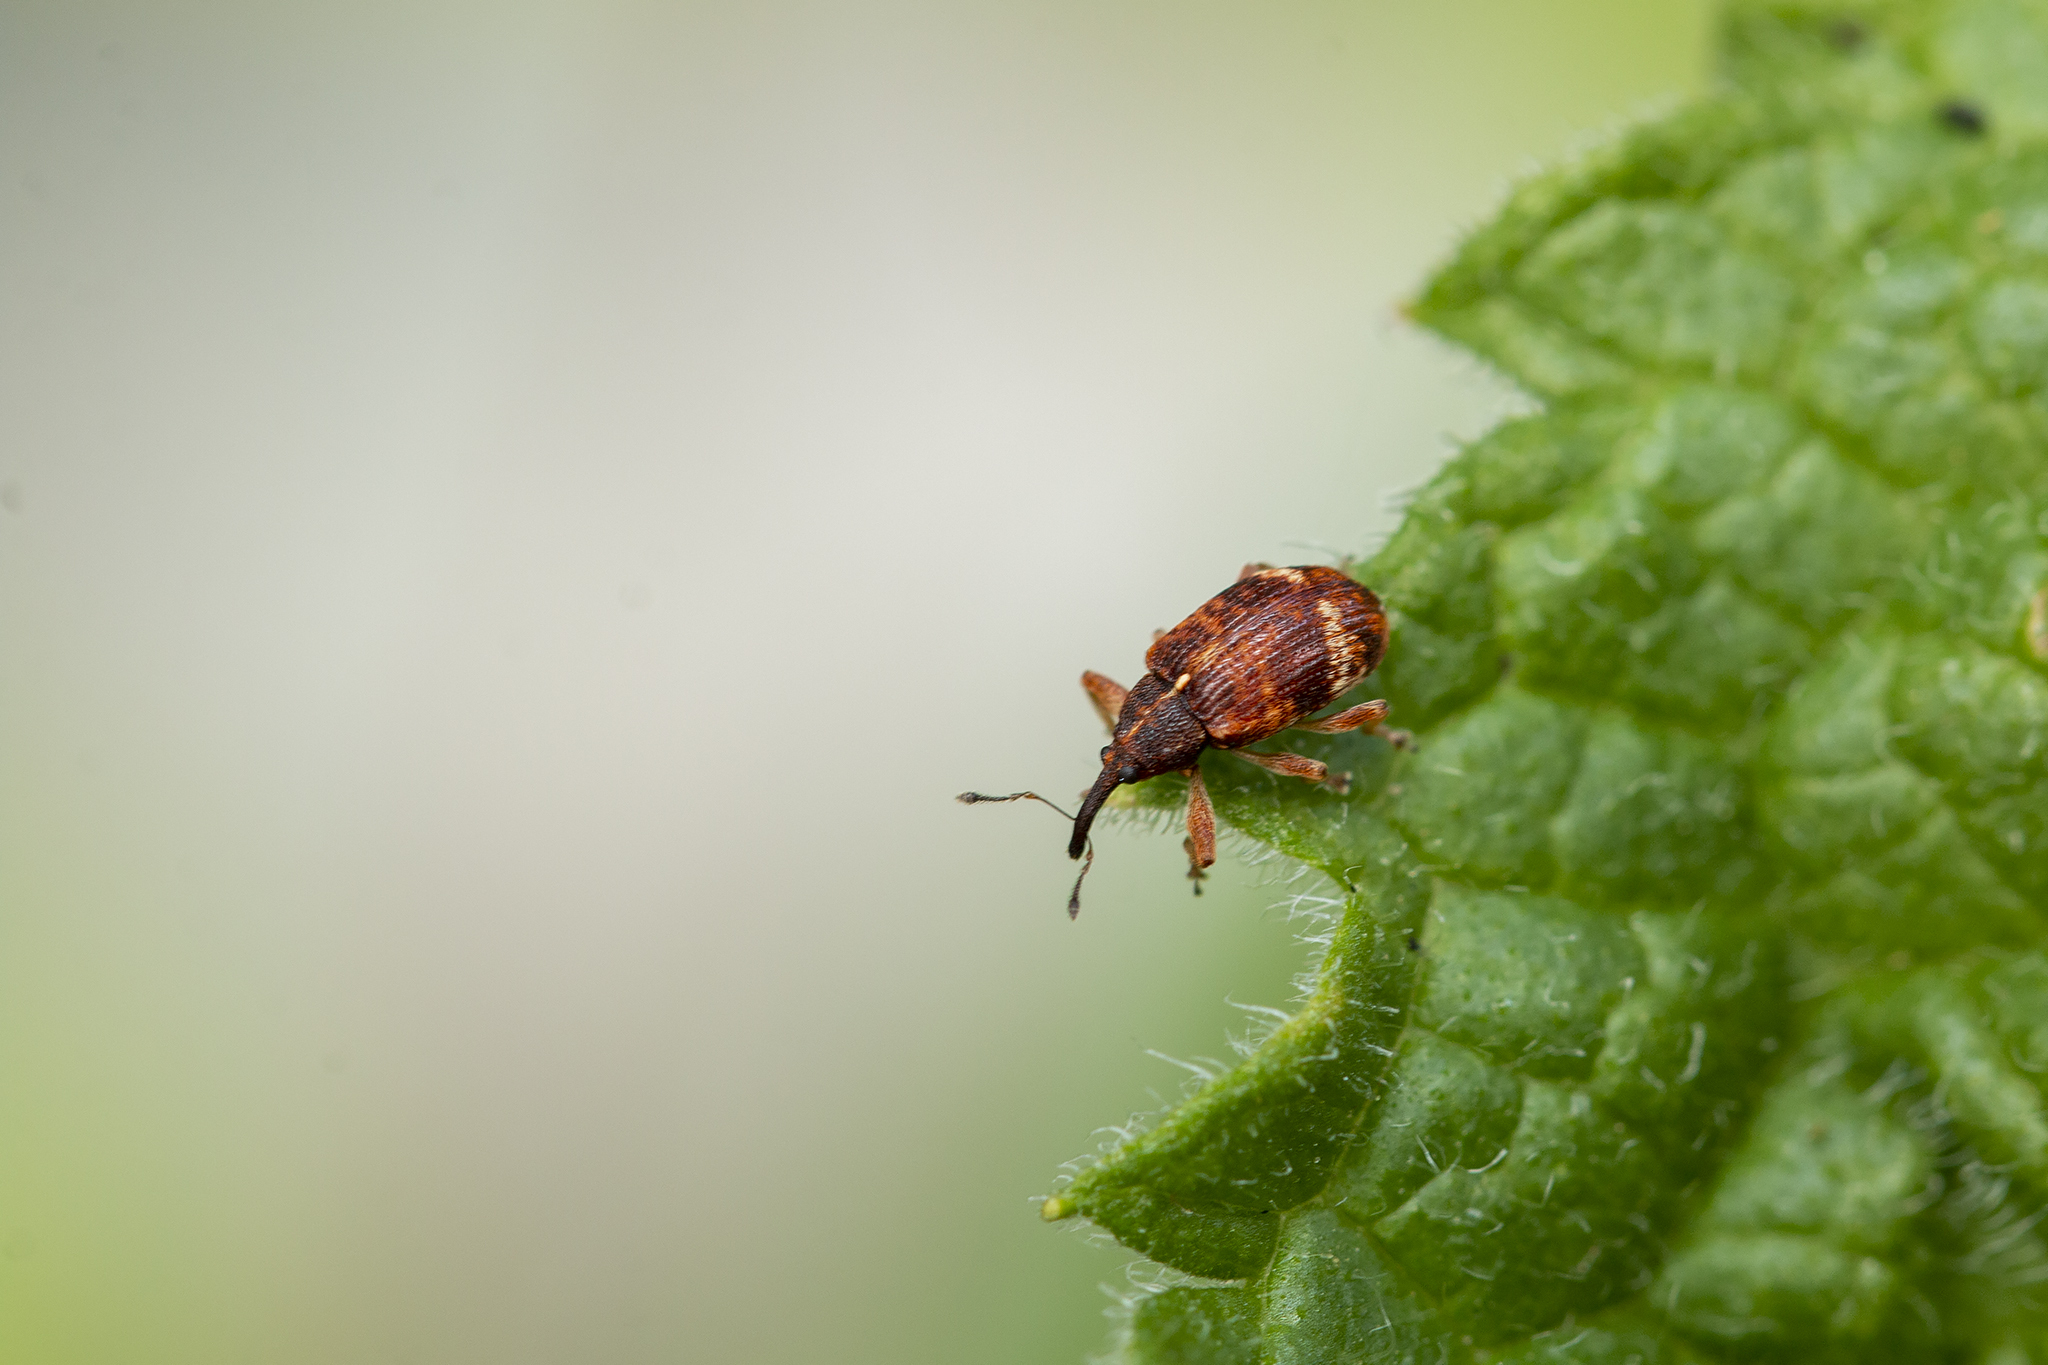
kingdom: Animalia
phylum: Arthropoda
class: Insecta
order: Coleoptera
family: Curculionidae
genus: Anthonomus
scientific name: Anthonomus pedicularius
